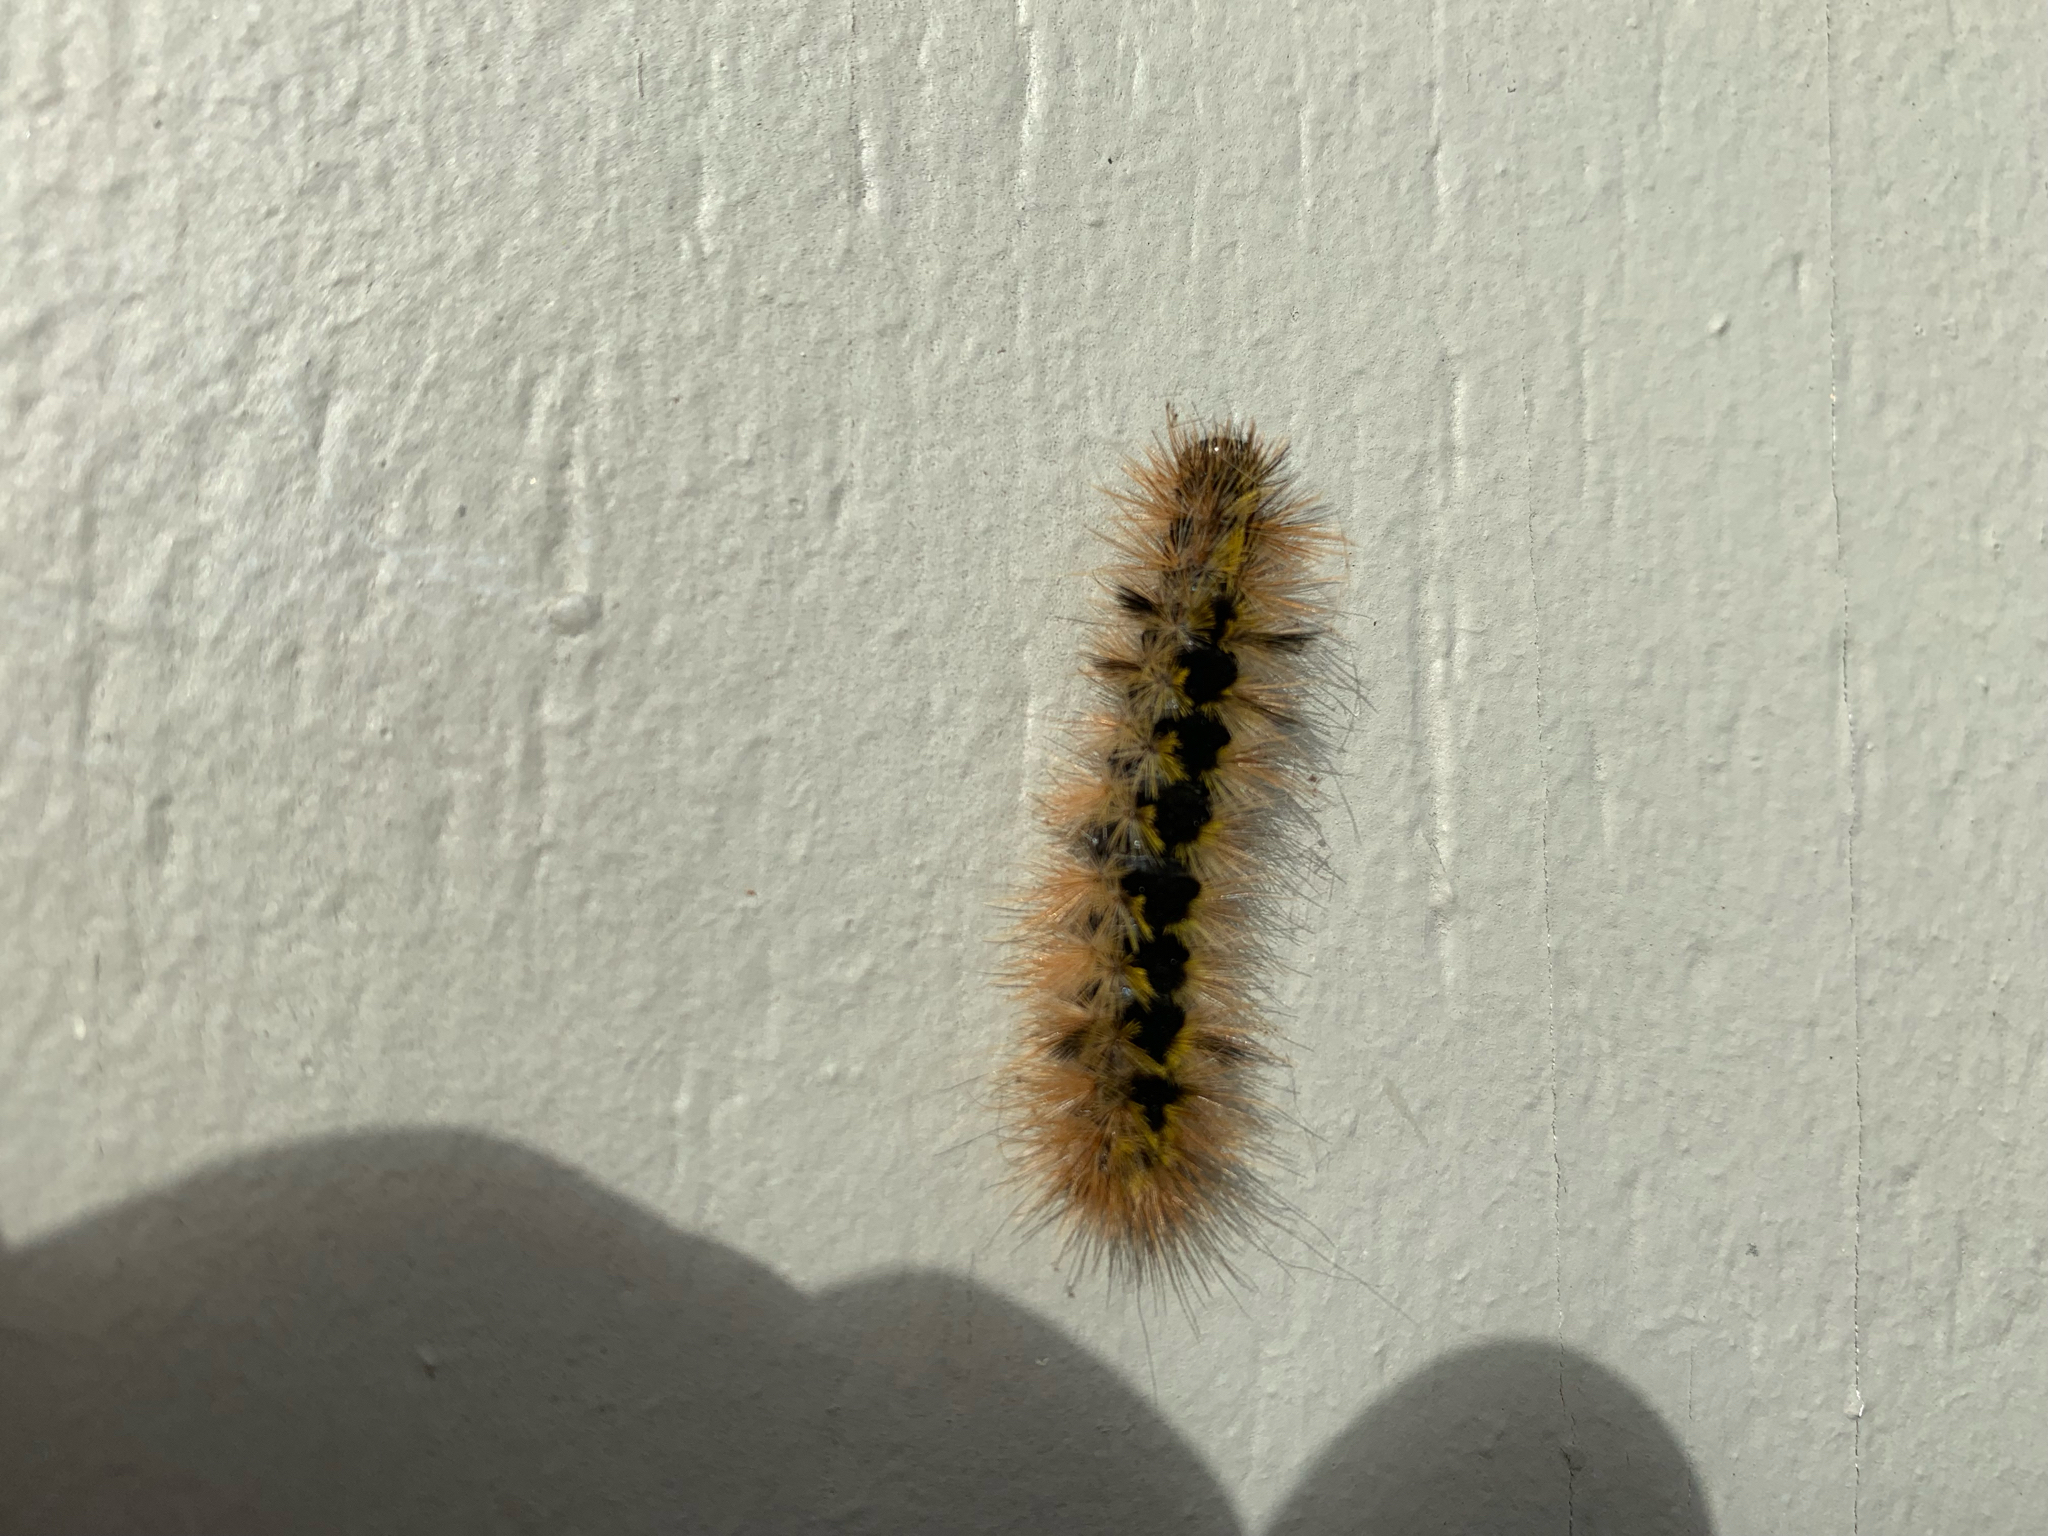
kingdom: Animalia
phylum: Arthropoda
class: Insecta
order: Lepidoptera
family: Erebidae
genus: Lophocampa
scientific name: Lophocampa argentata
